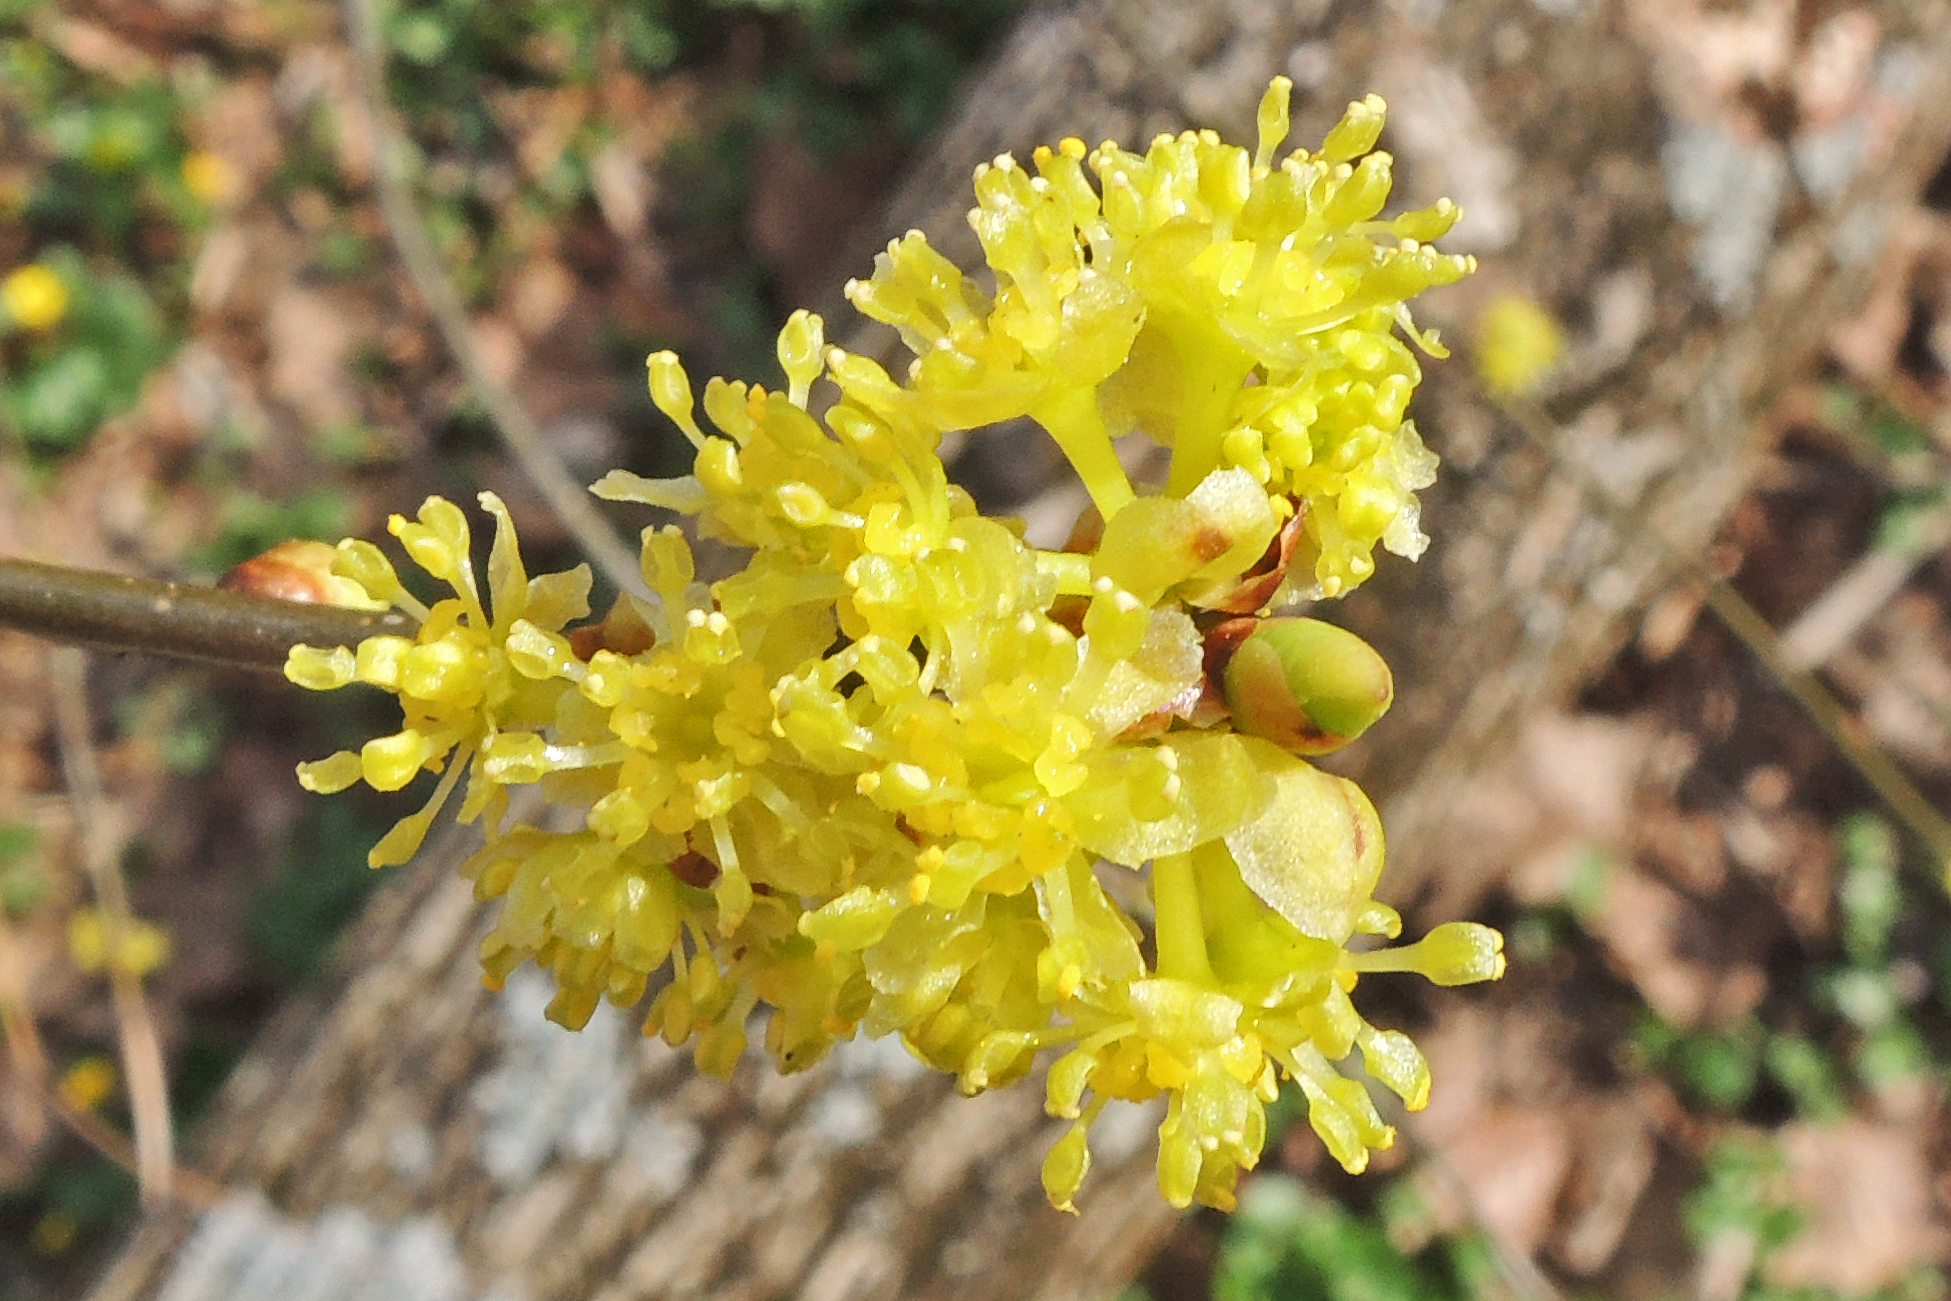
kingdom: Plantae
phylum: Tracheophyta
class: Magnoliopsida
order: Laurales
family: Lauraceae
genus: Lindera
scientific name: Lindera benzoin
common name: Spicebush
